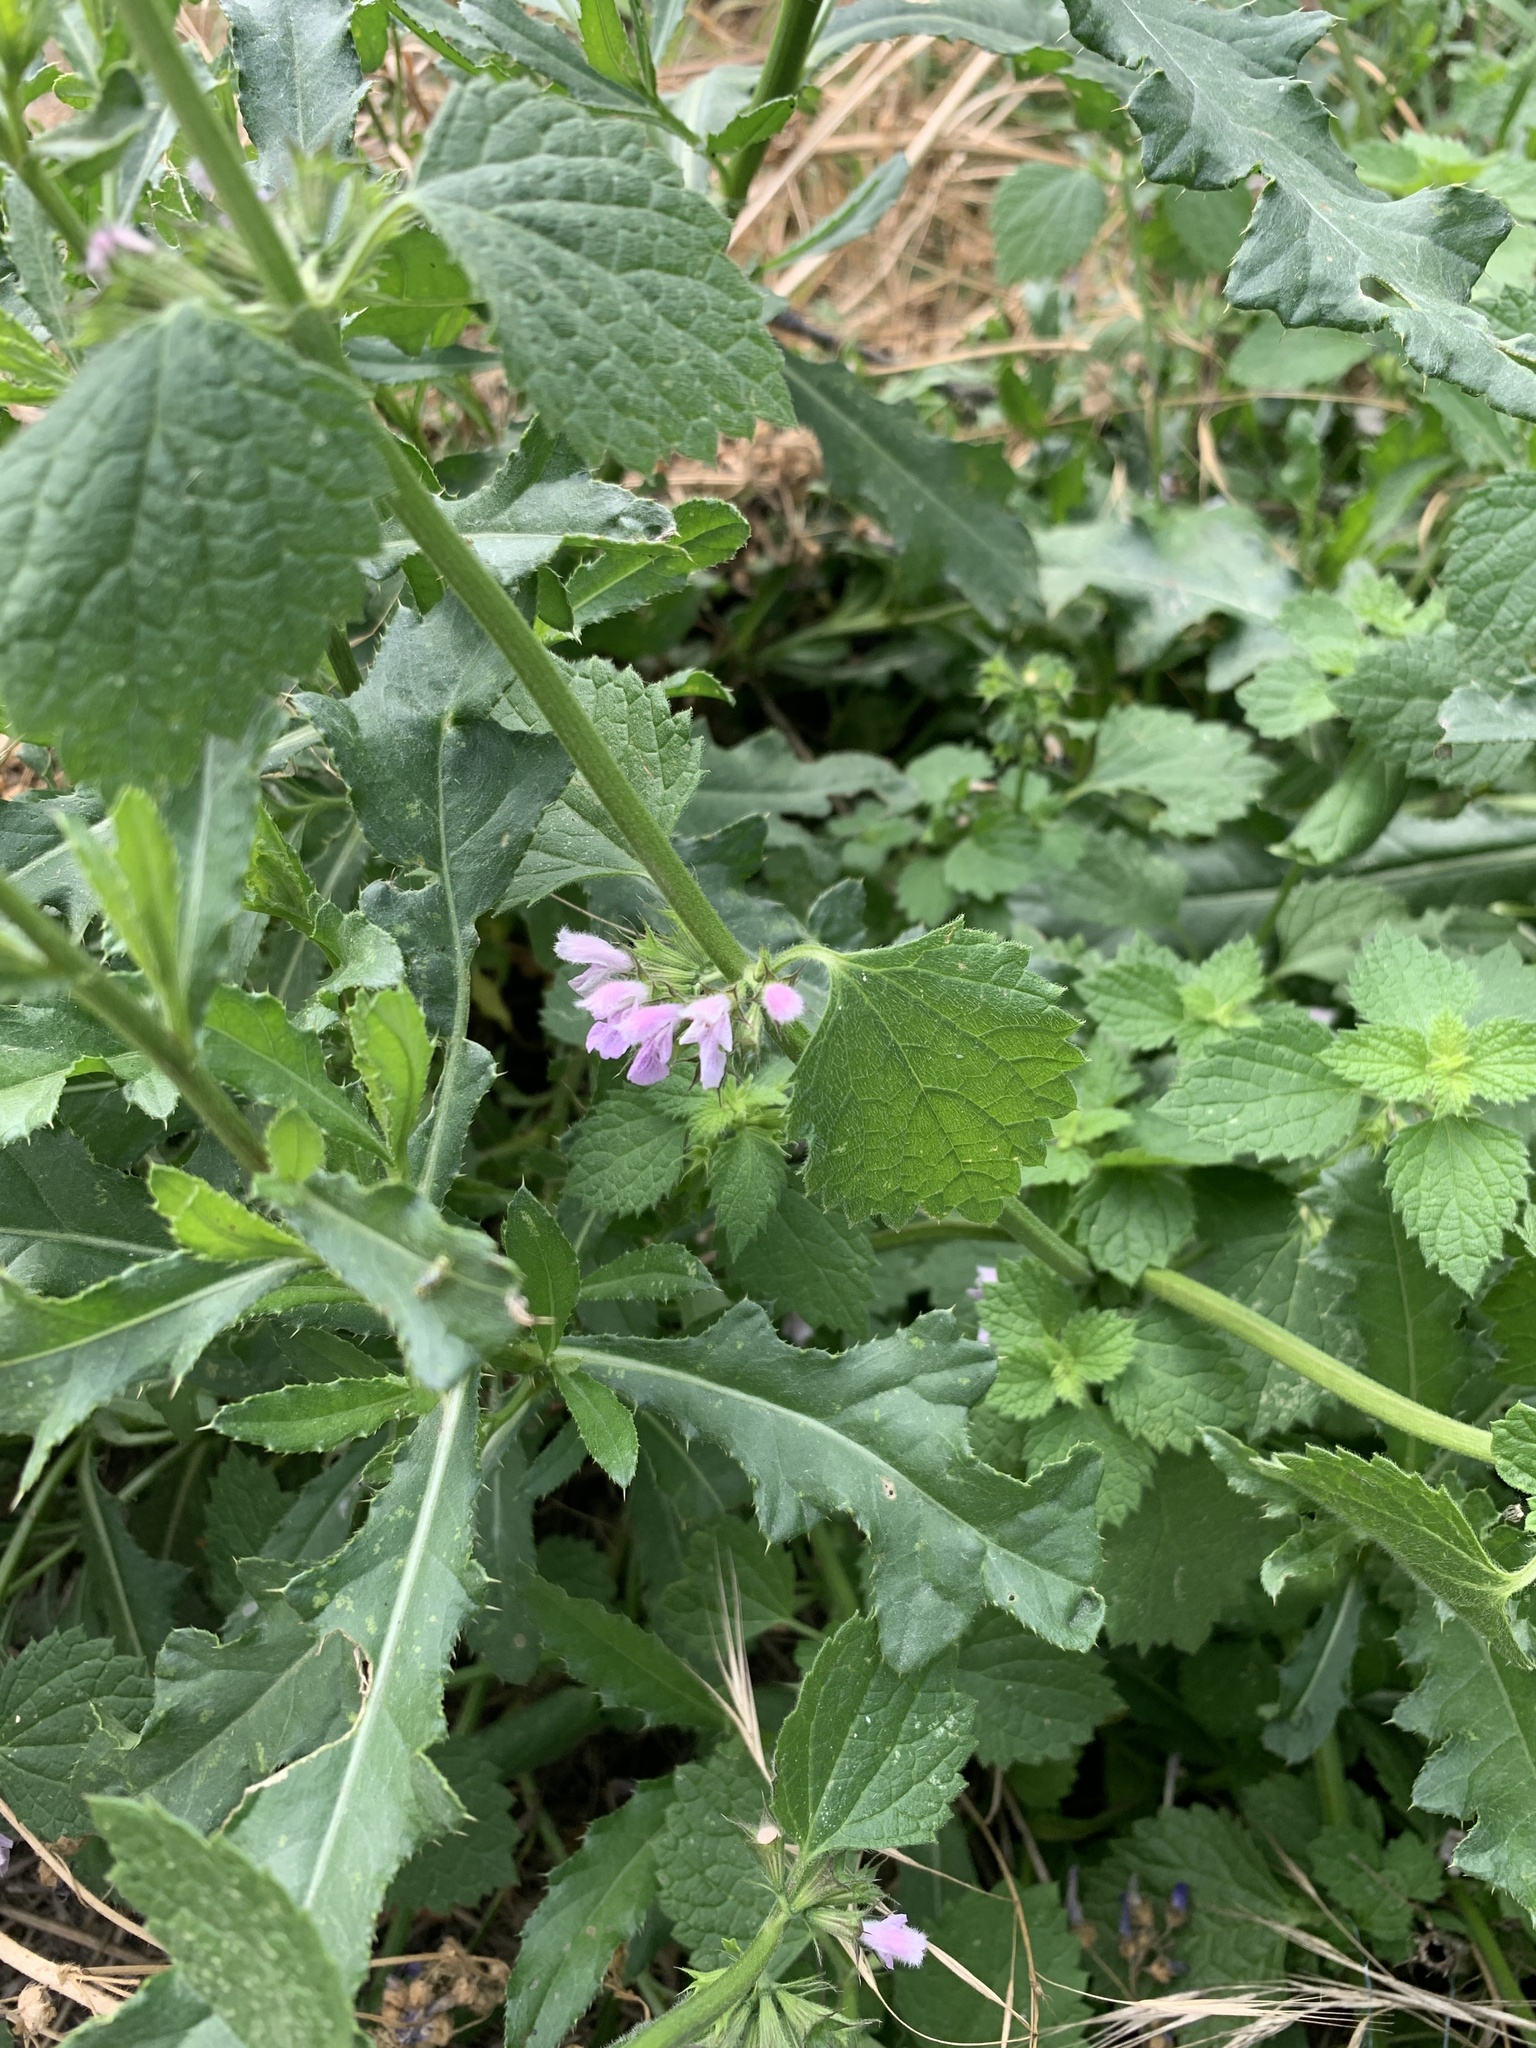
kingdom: Plantae
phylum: Tracheophyta
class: Magnoliopsida
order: Lamiales
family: Lamiaceae
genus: Ballota
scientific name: Ballota nigra
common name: Black horehound
